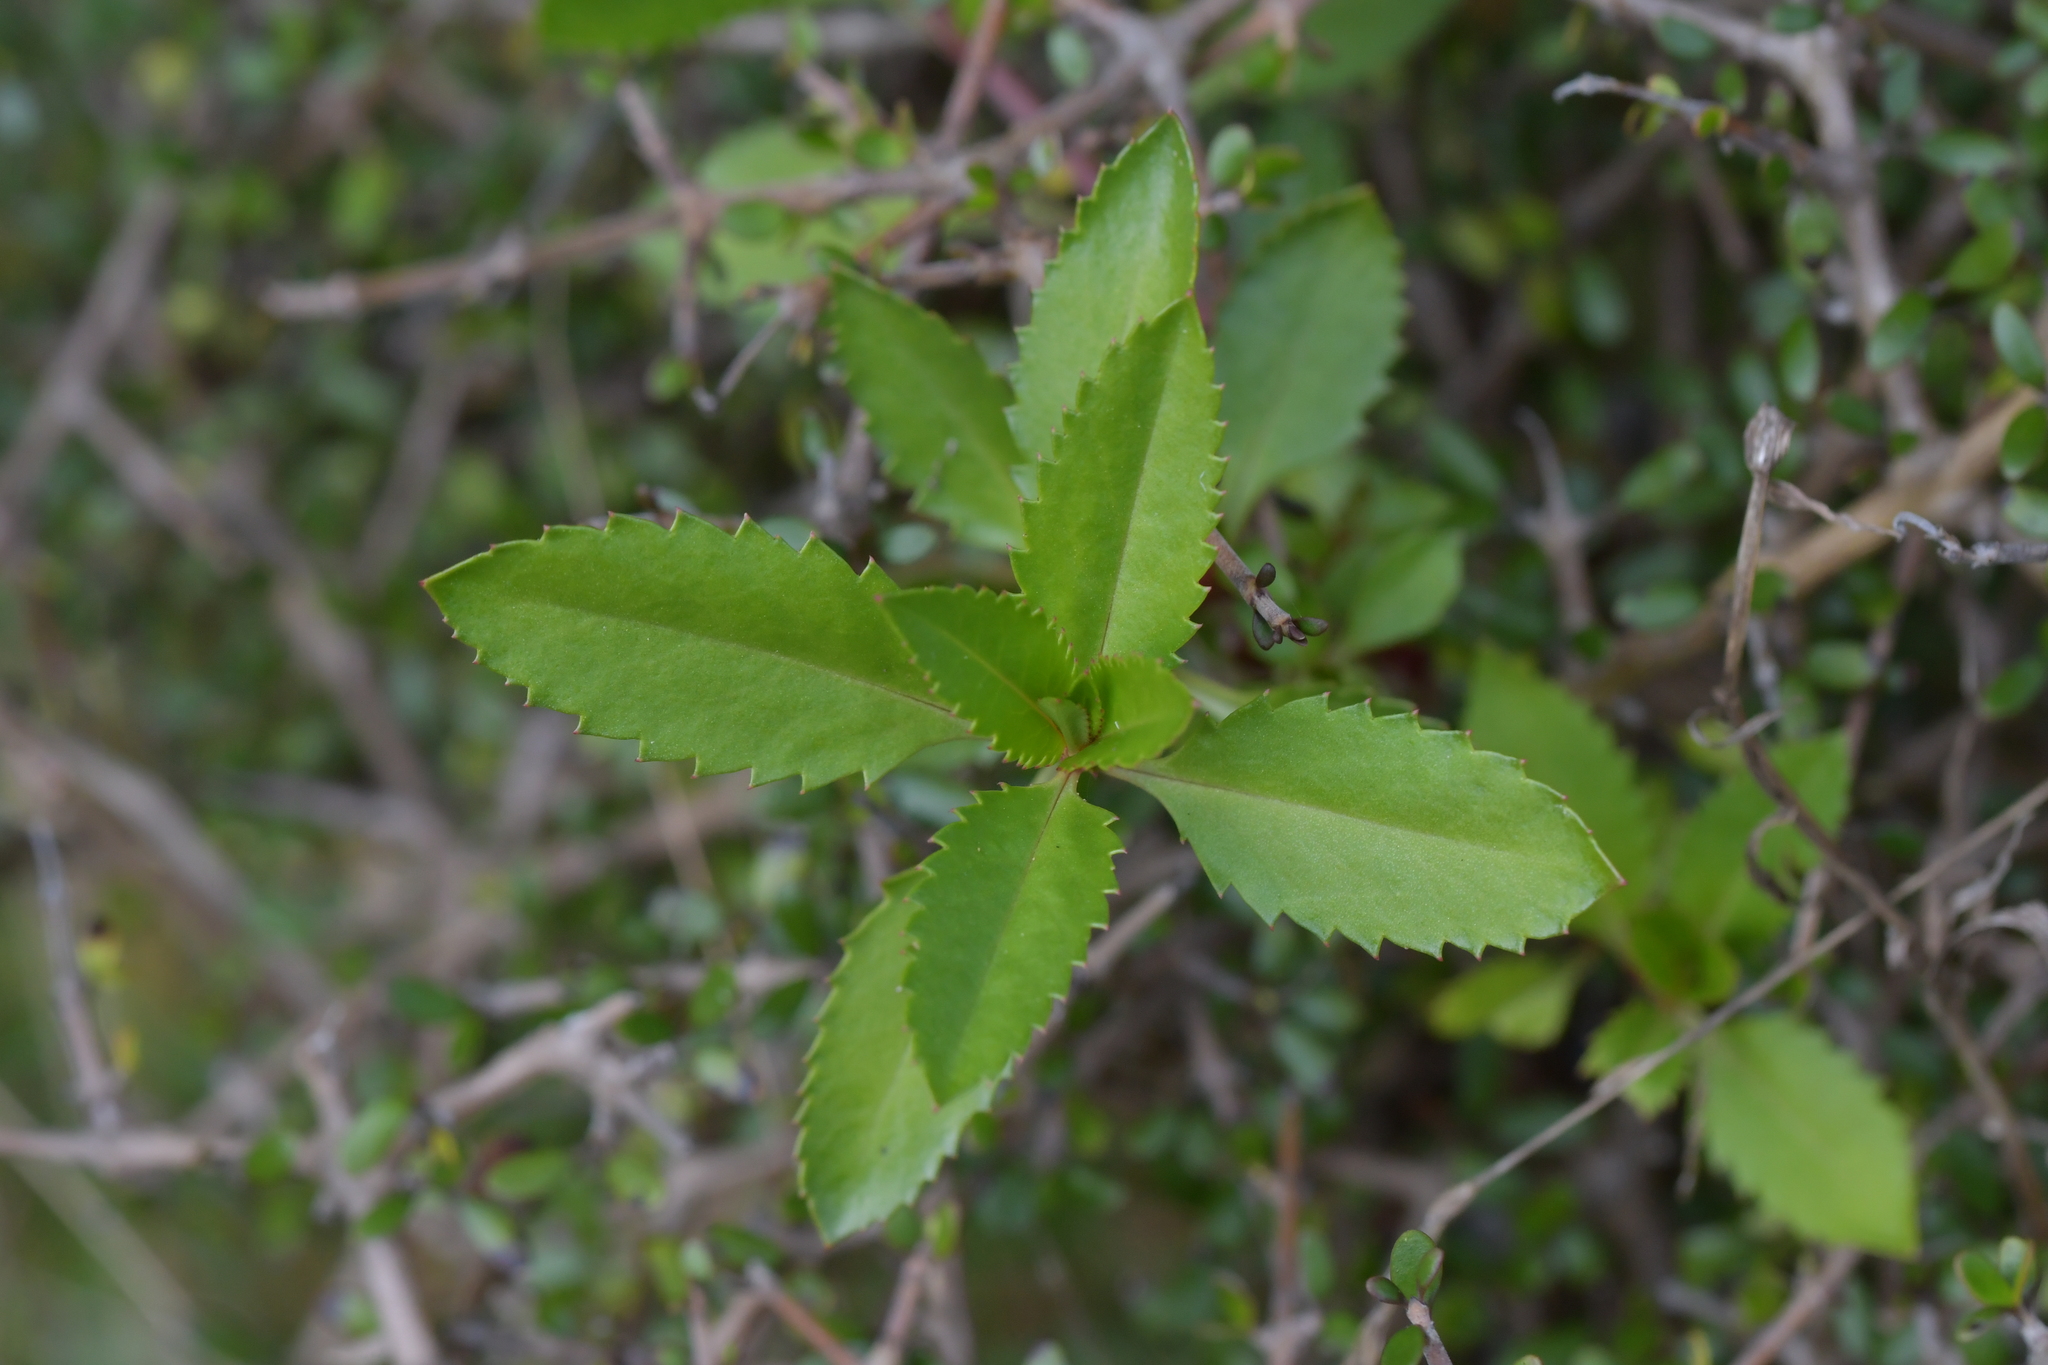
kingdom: Plantae
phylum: Tracheophyta
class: Magnoliopsida
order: Saxifragales
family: Haloragaceae
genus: Haloragis
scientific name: Haloragis erecta
